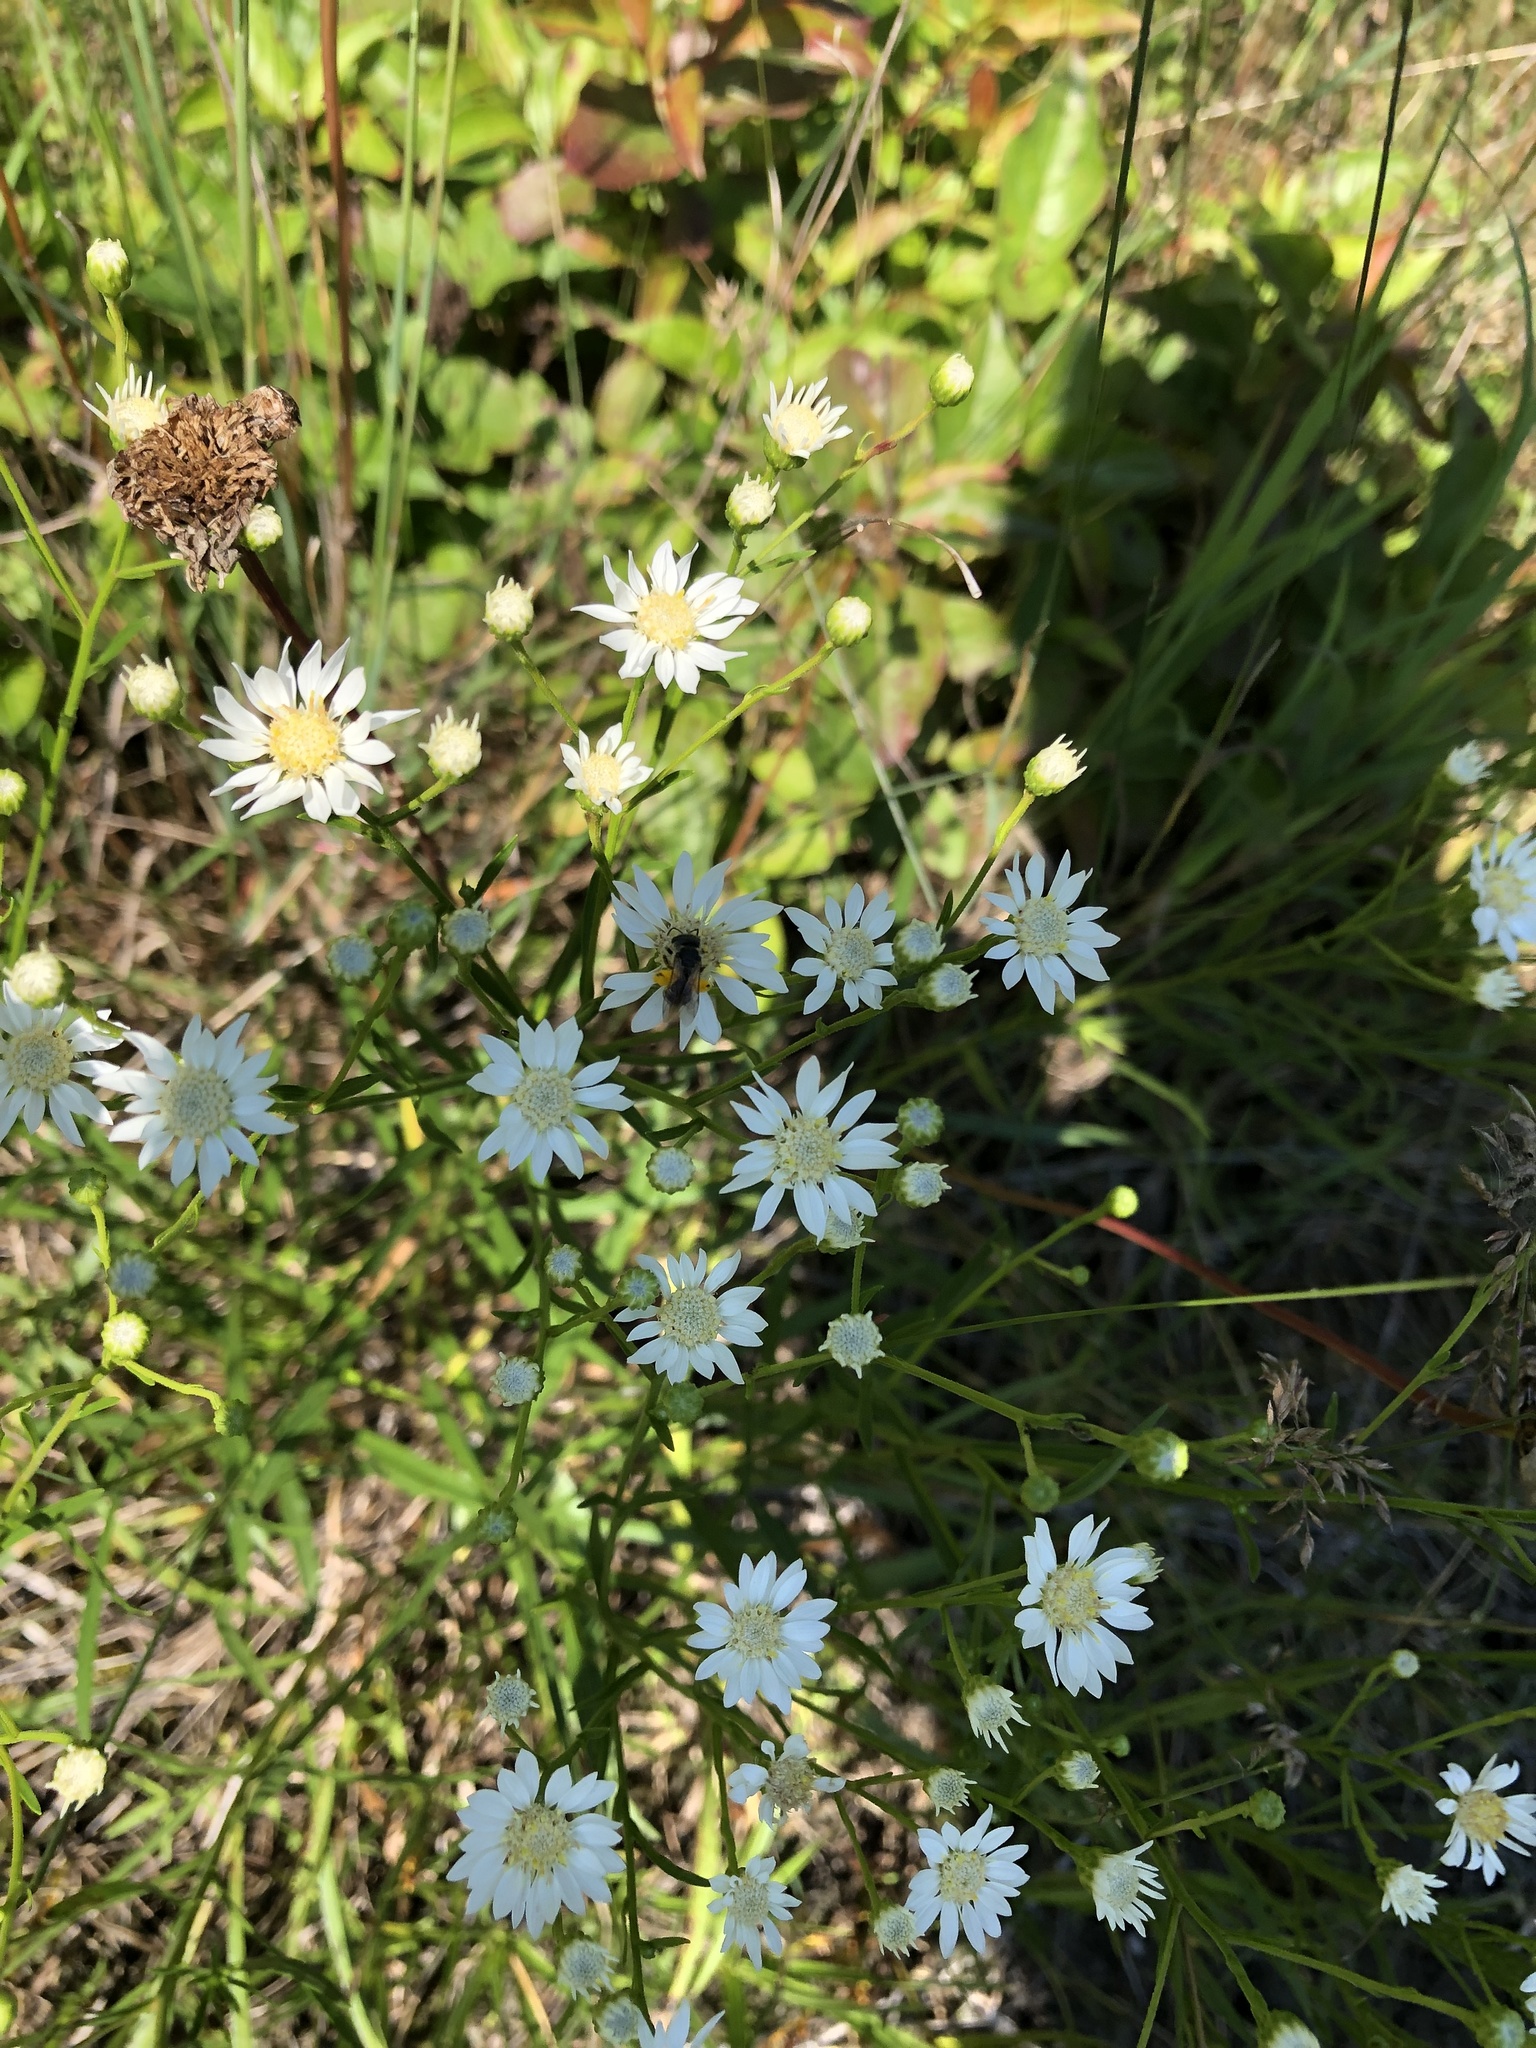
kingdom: Plantae
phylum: Tracheophyta
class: Magnoliopsida
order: Asterales
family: Asteraceae
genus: Solidago
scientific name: Solidago ptarmicoides
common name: White flat-top goldenrod
